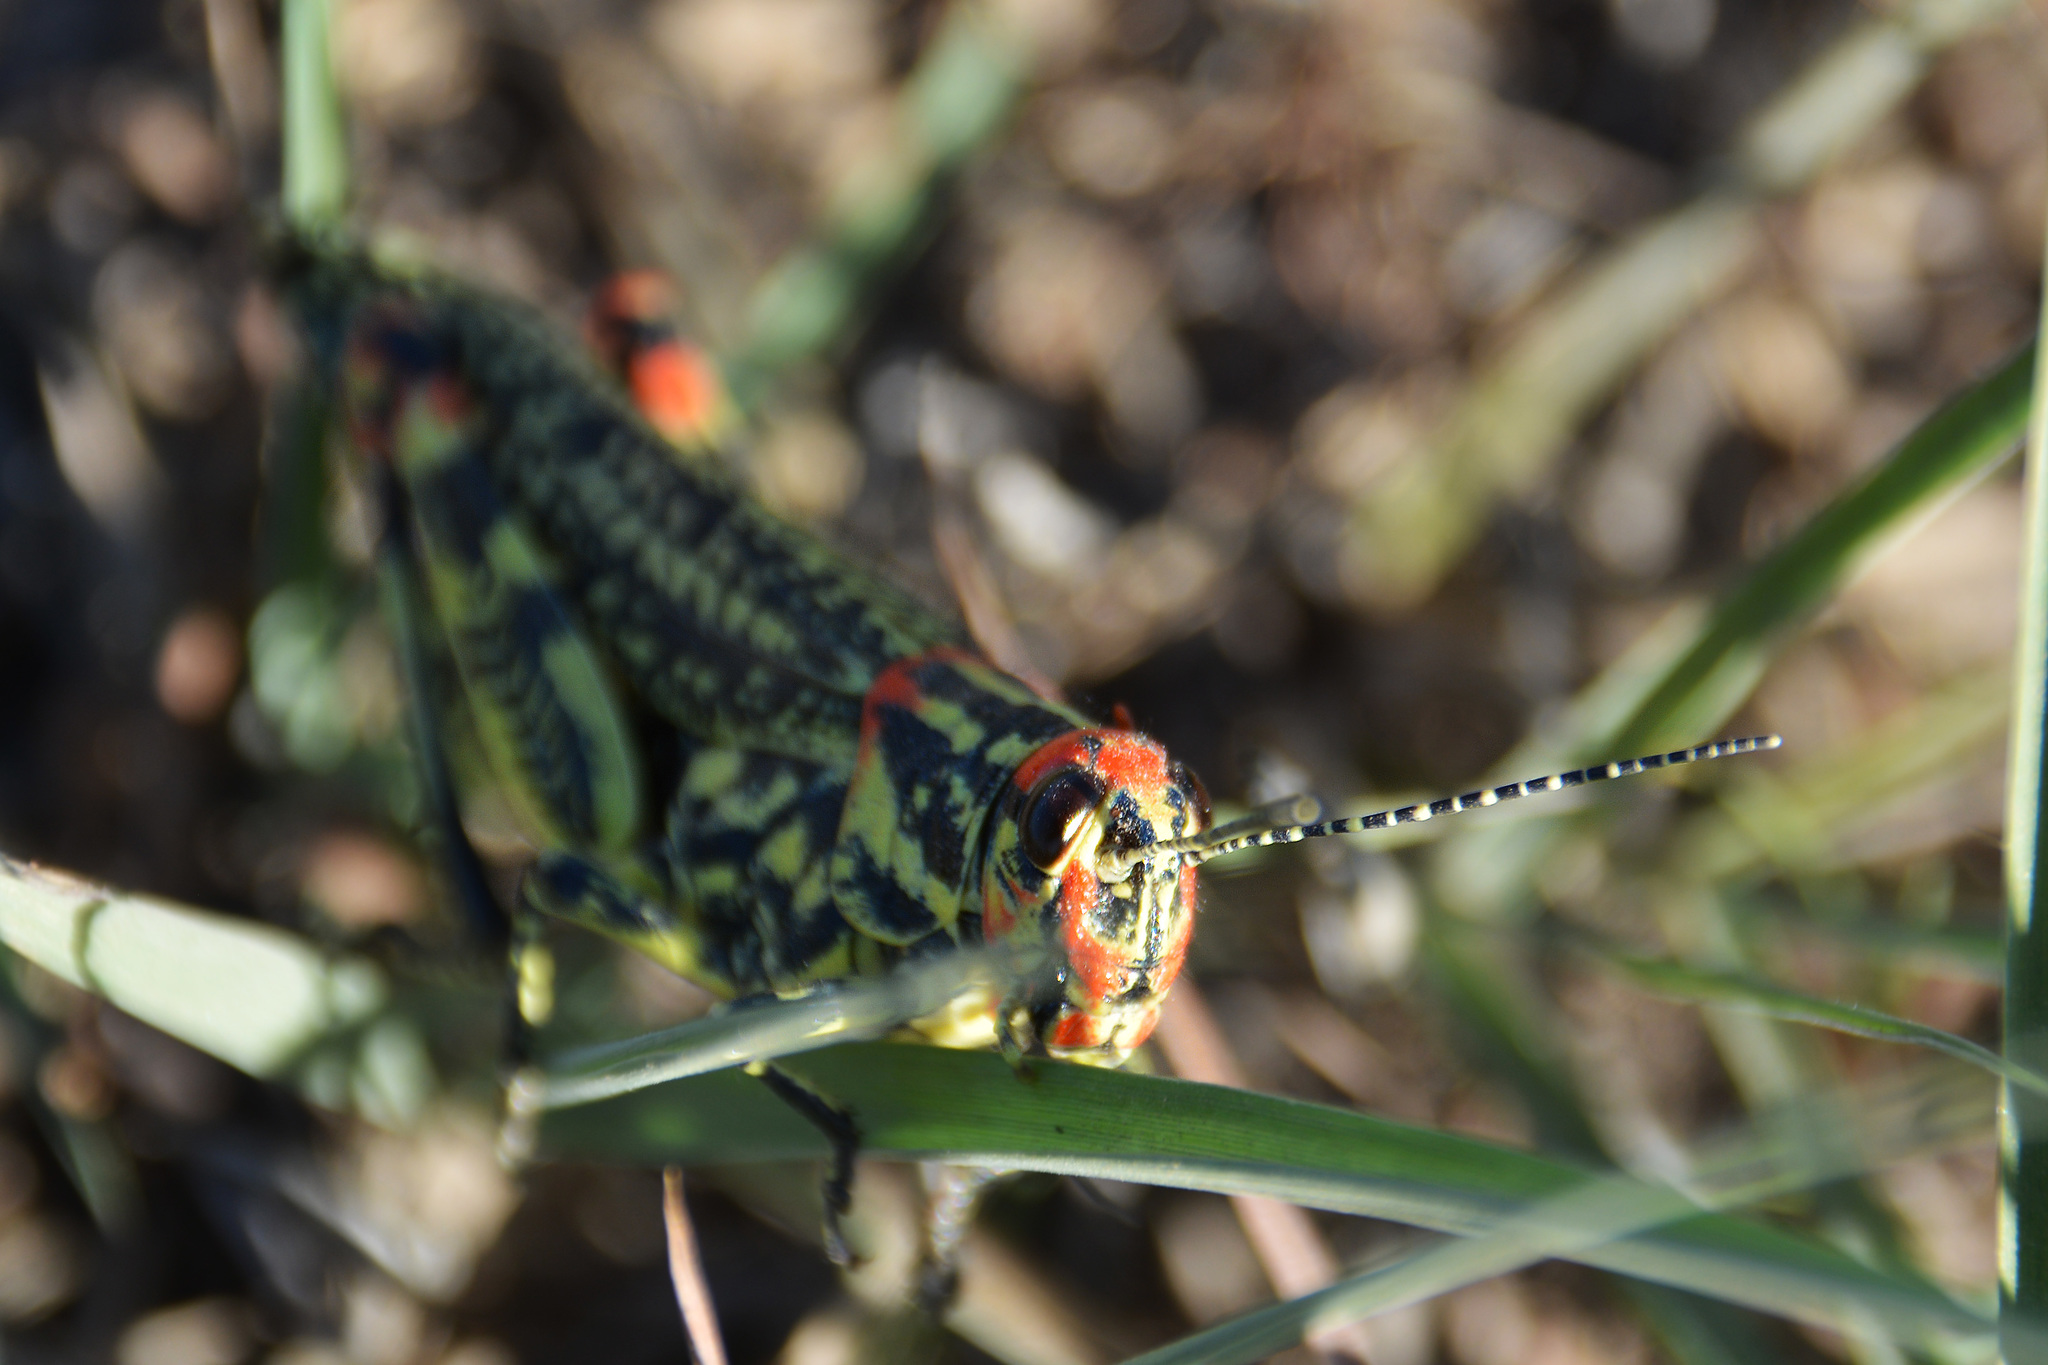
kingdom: Animalia
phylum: Arthropoda
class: Insecta
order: Orthoptera
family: Romaleidae
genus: Diponthus
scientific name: Diponthus puelchus
